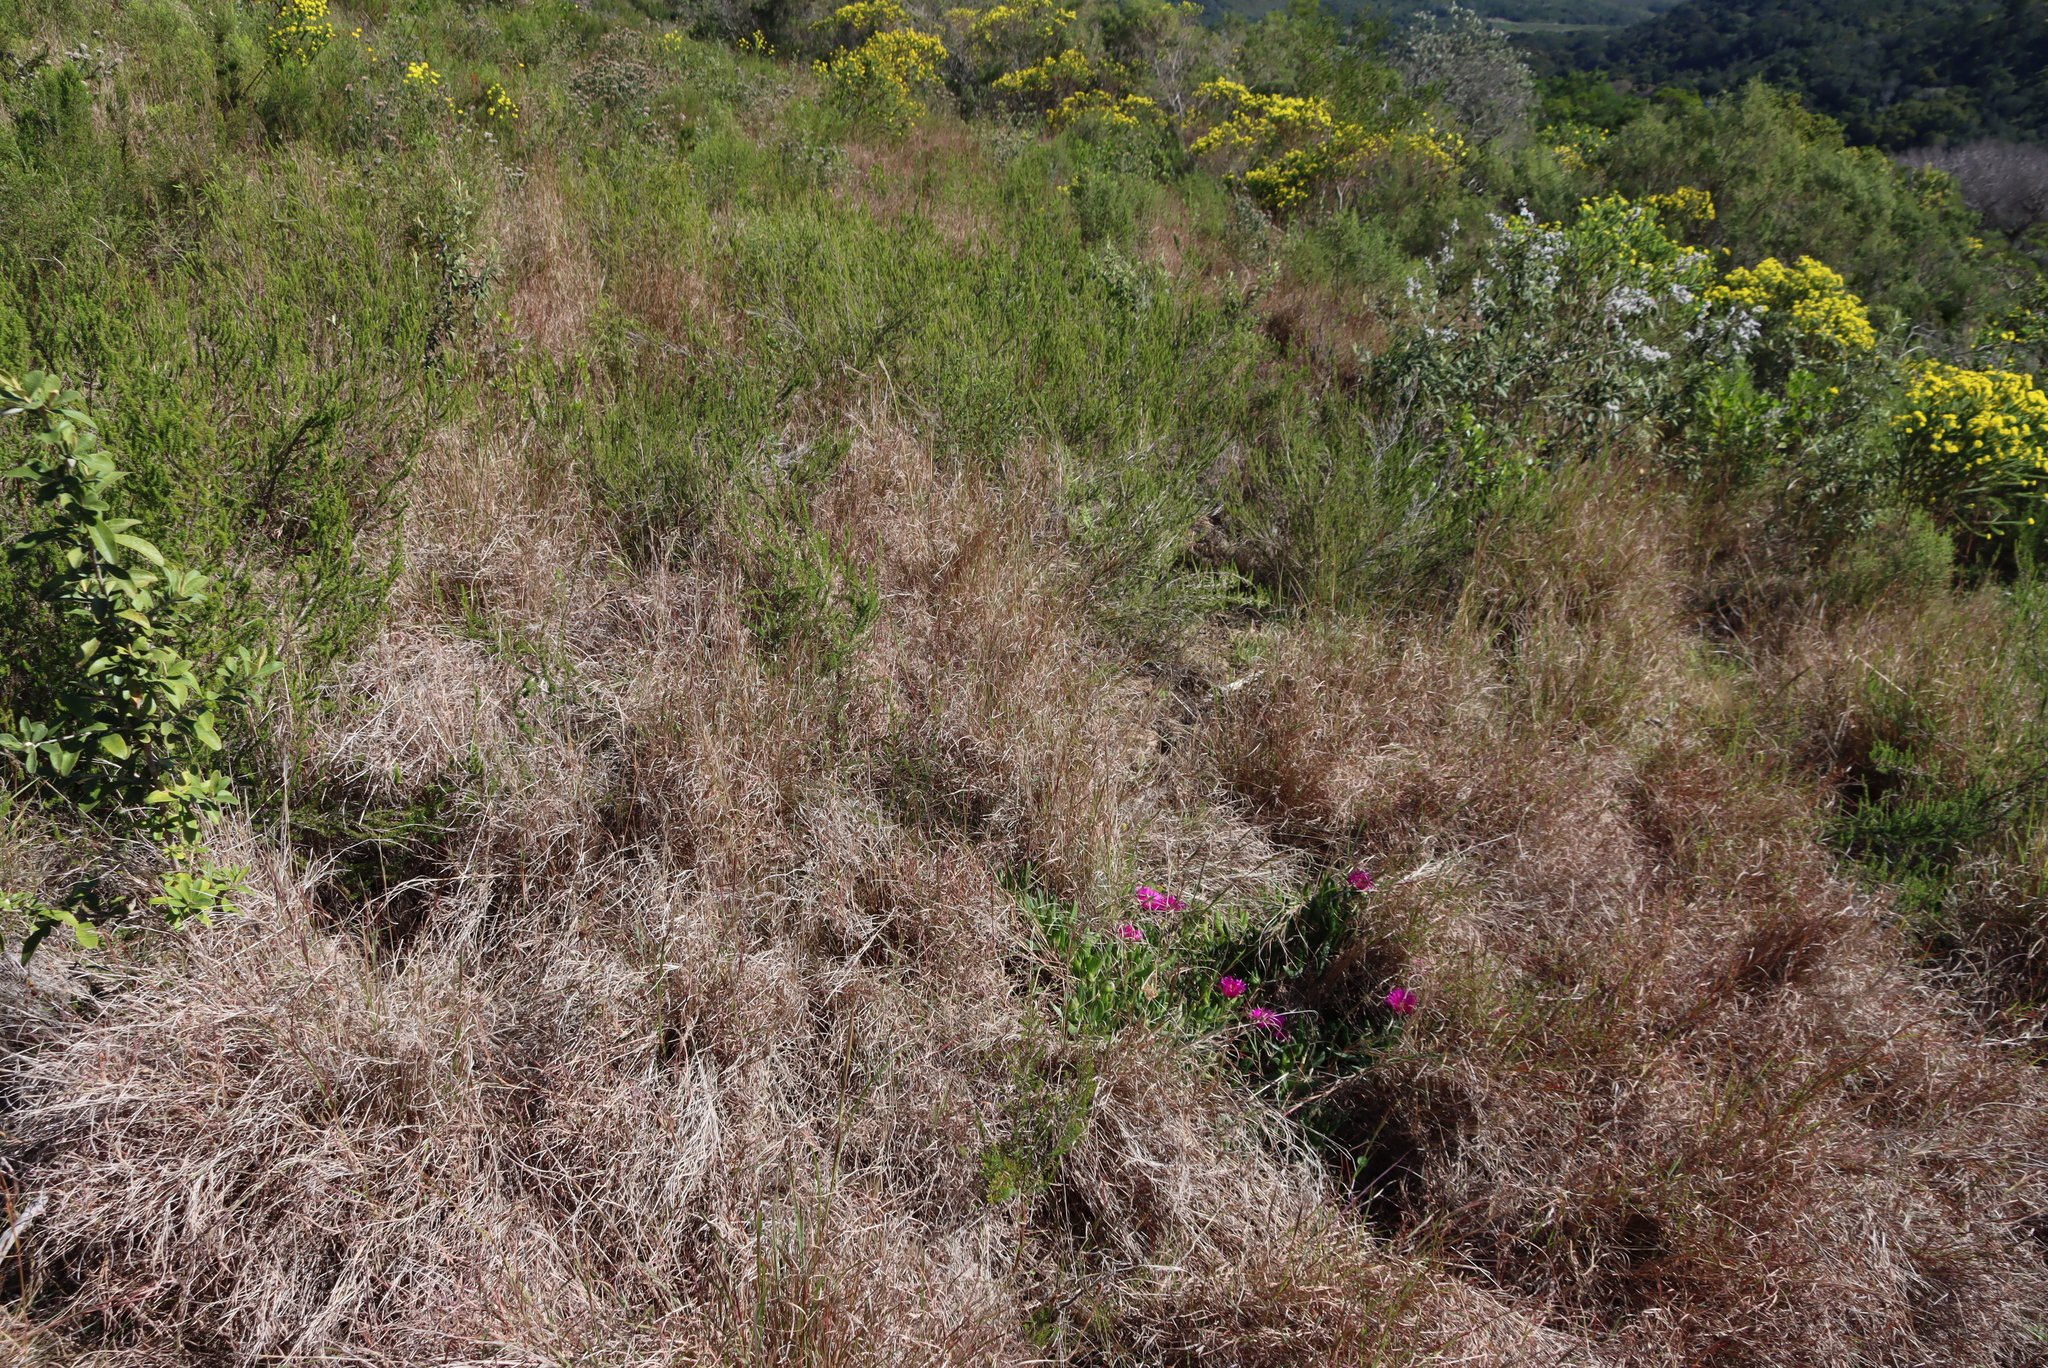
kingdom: Plantae
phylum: Tracheophyta
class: Liliopsida
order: Poales
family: Poaceae
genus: Themeda
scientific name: Themeda triandra
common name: Kangaroo grass
